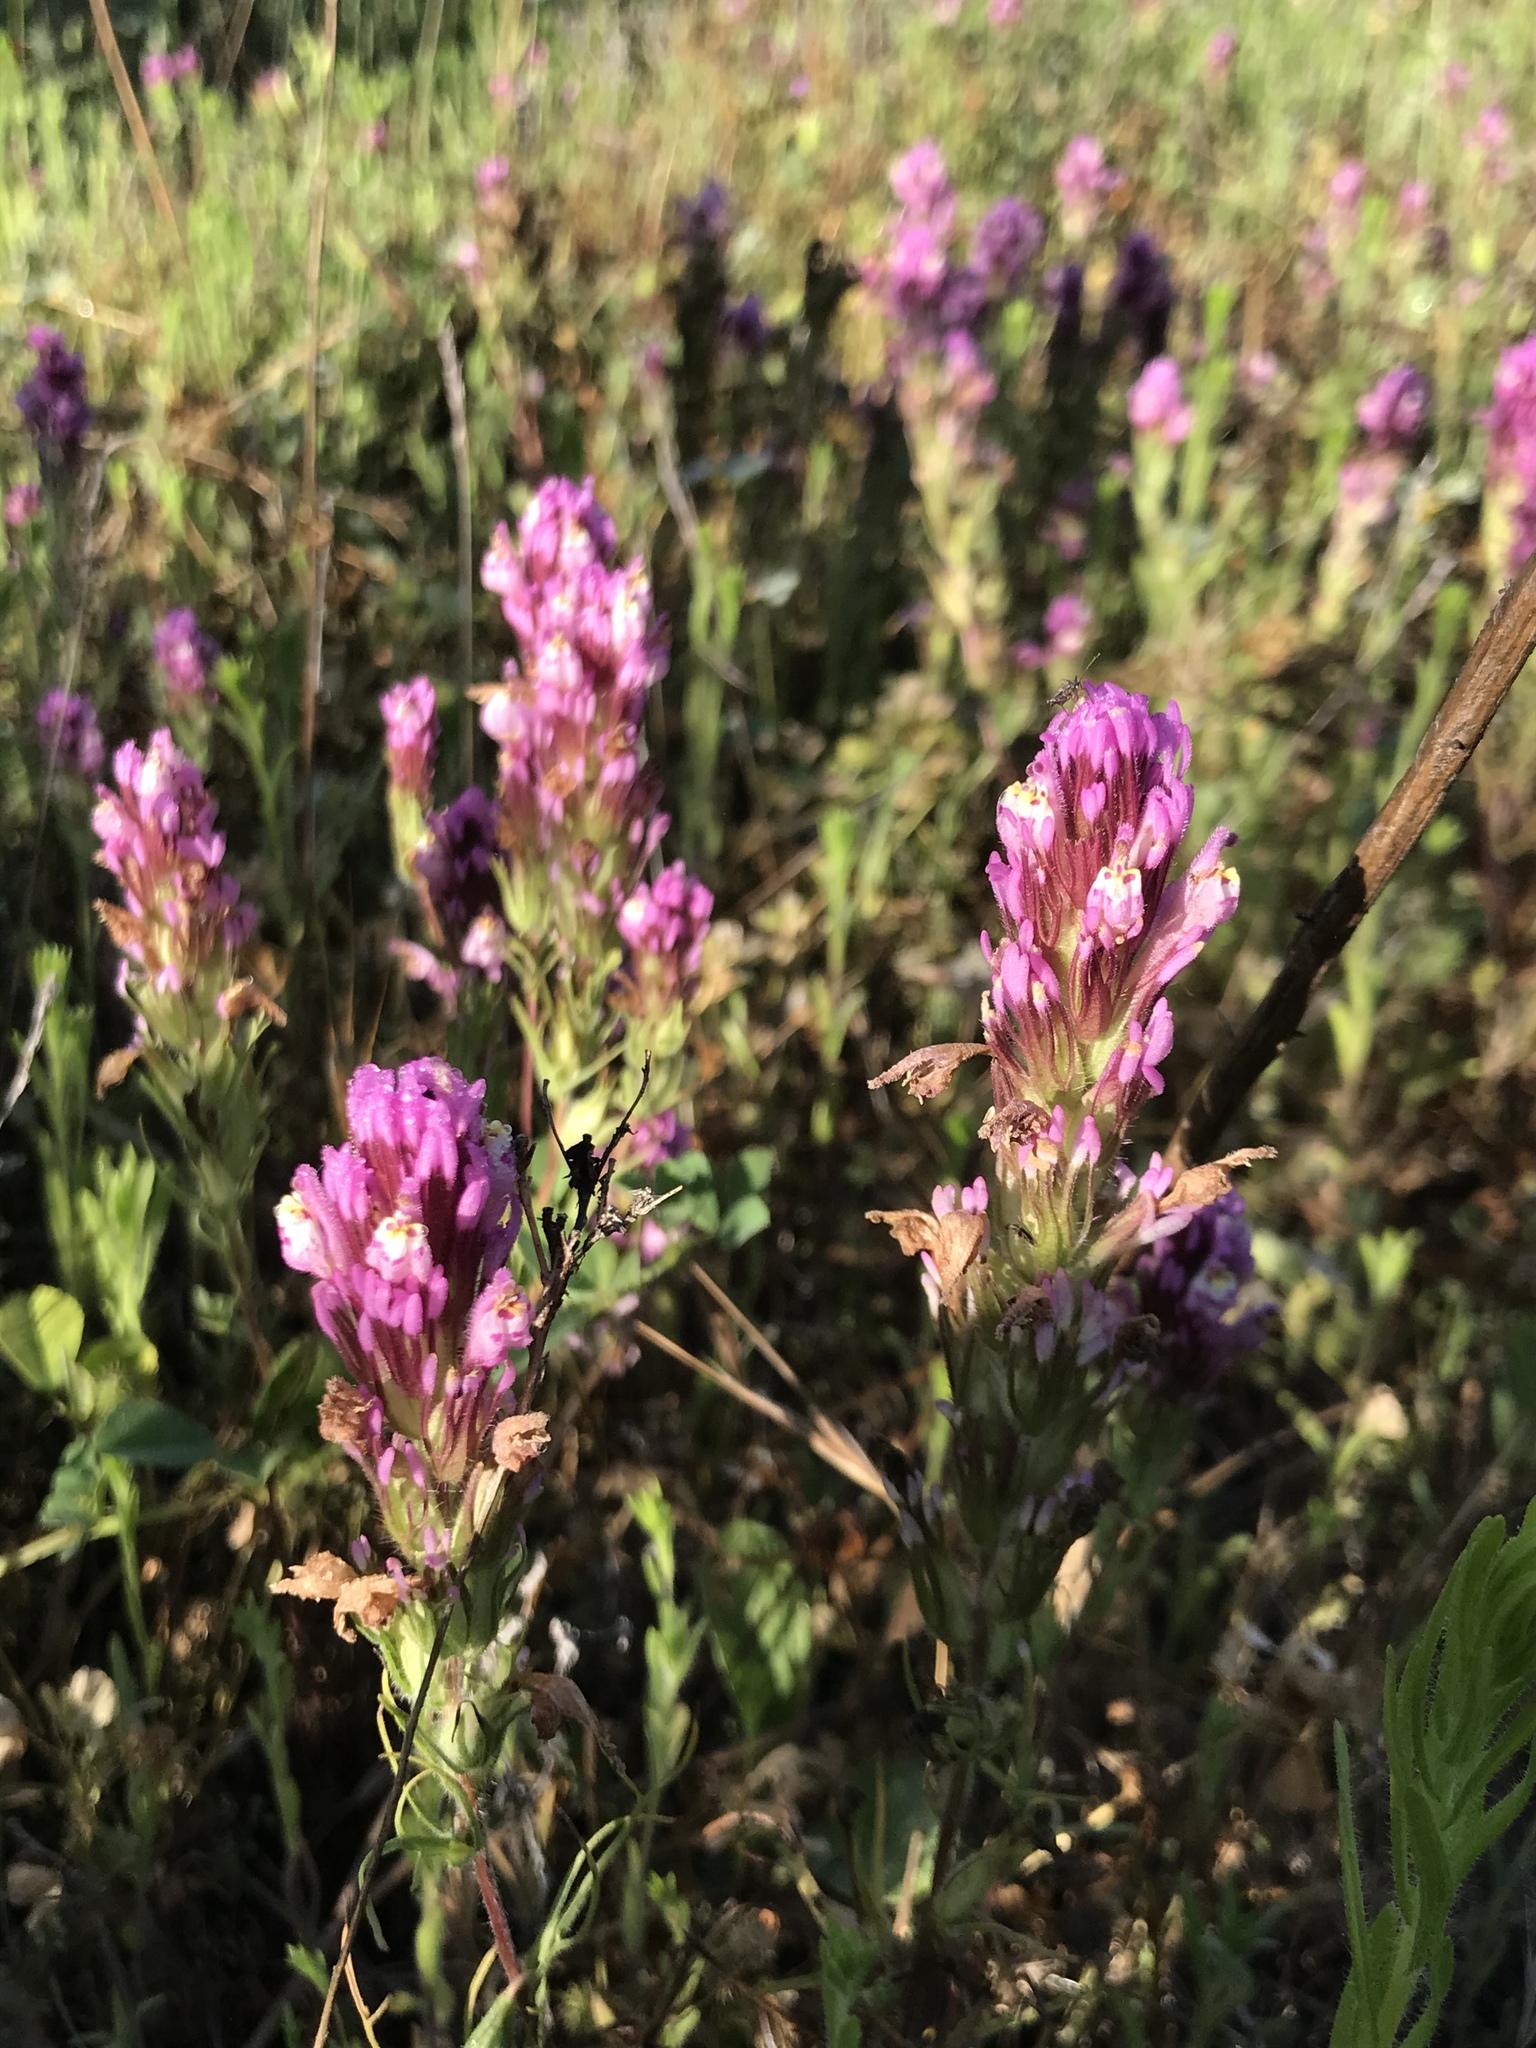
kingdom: Plantae
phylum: Tracheophyta
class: Magnoliopsida
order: Lamiales
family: Orobanchaceae
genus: Castilleja
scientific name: Castilleja exserta
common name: Purple owl-clover
